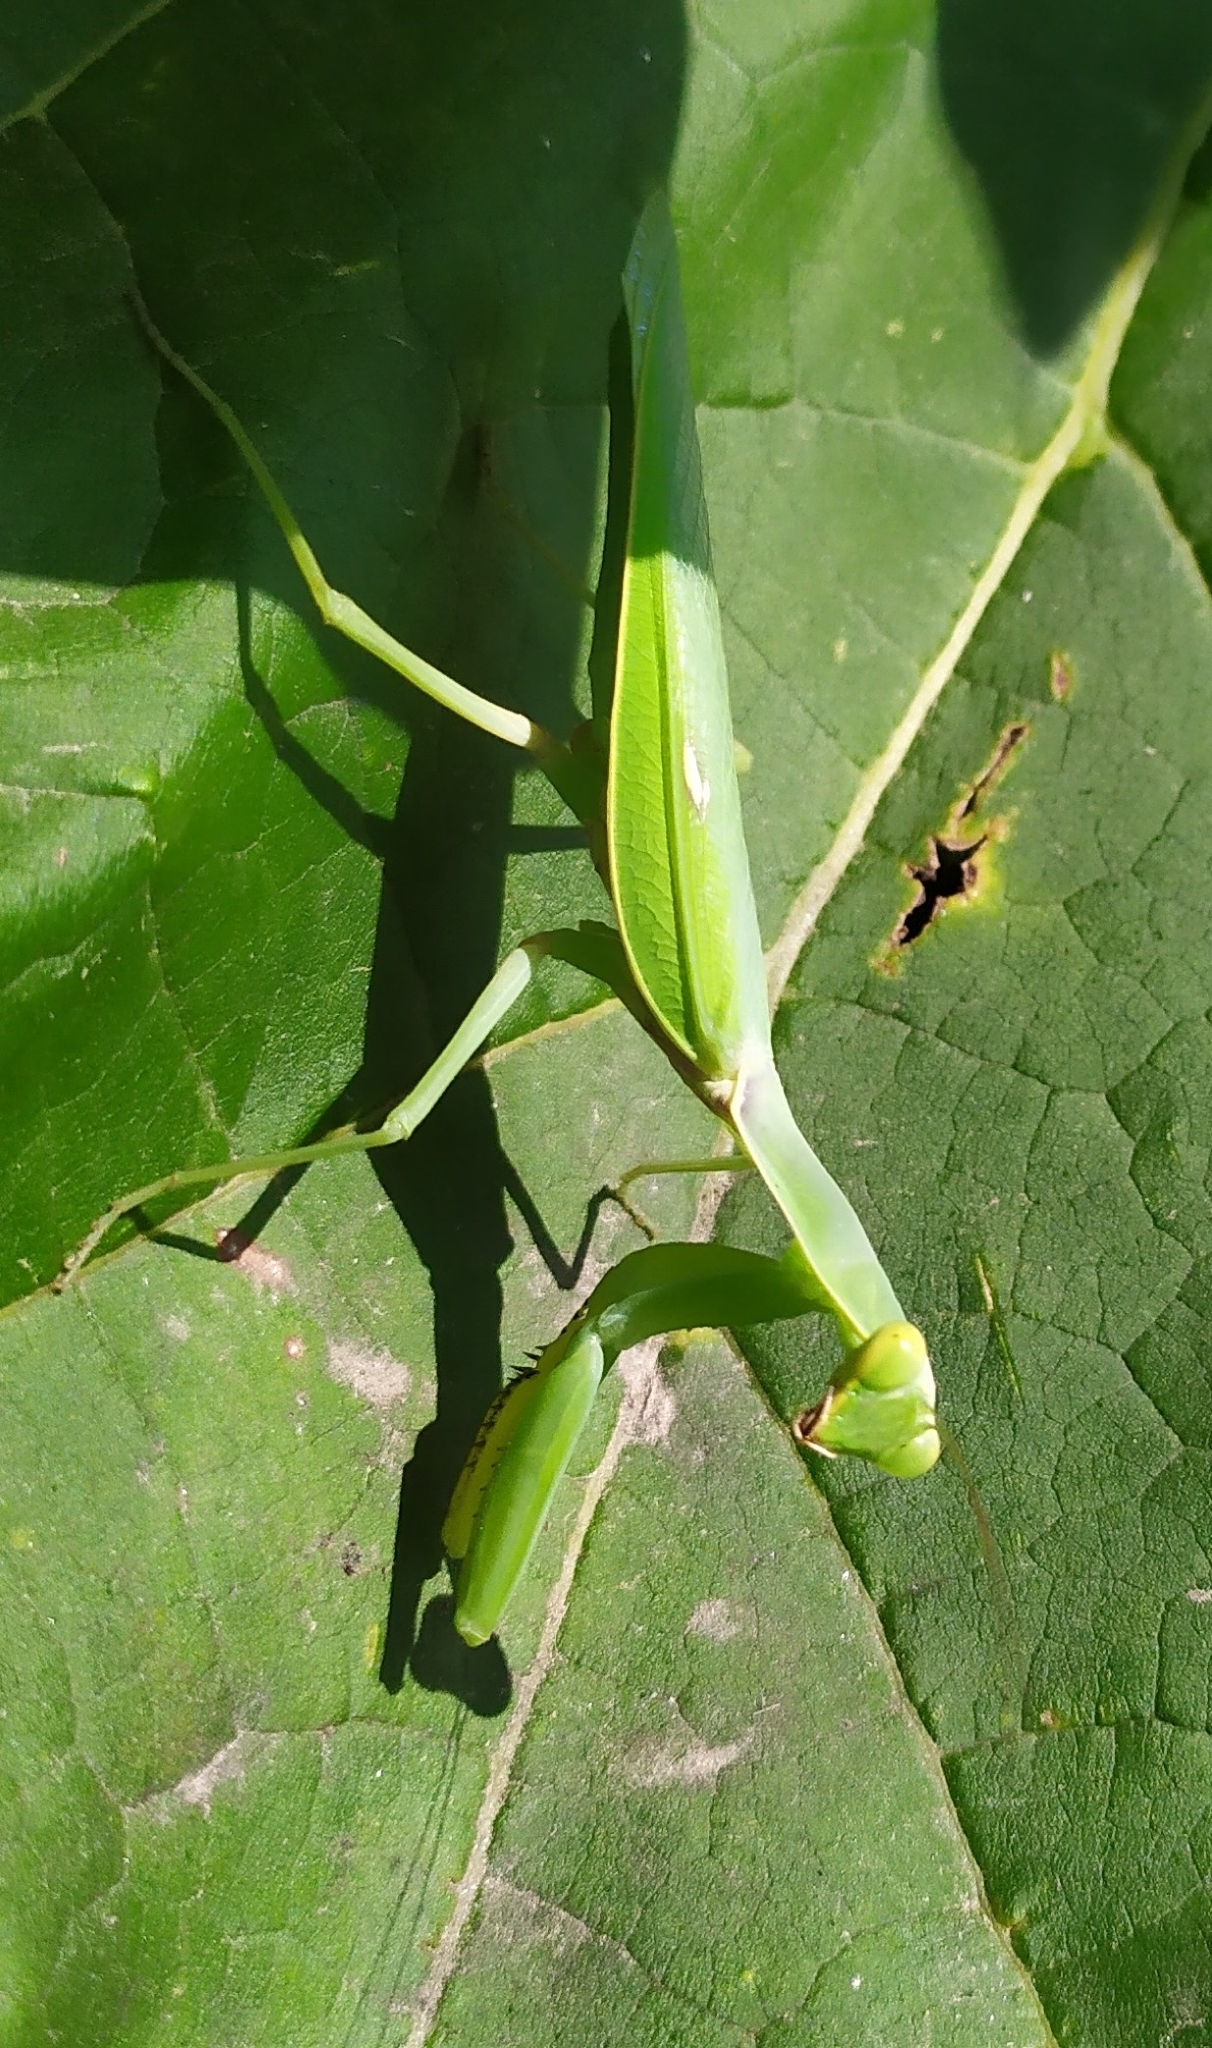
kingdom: Animalia
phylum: Arthropoda
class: Insecta
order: Mantodea
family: Mantidae
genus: Hierodula
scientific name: Hierodula transcaucasica
